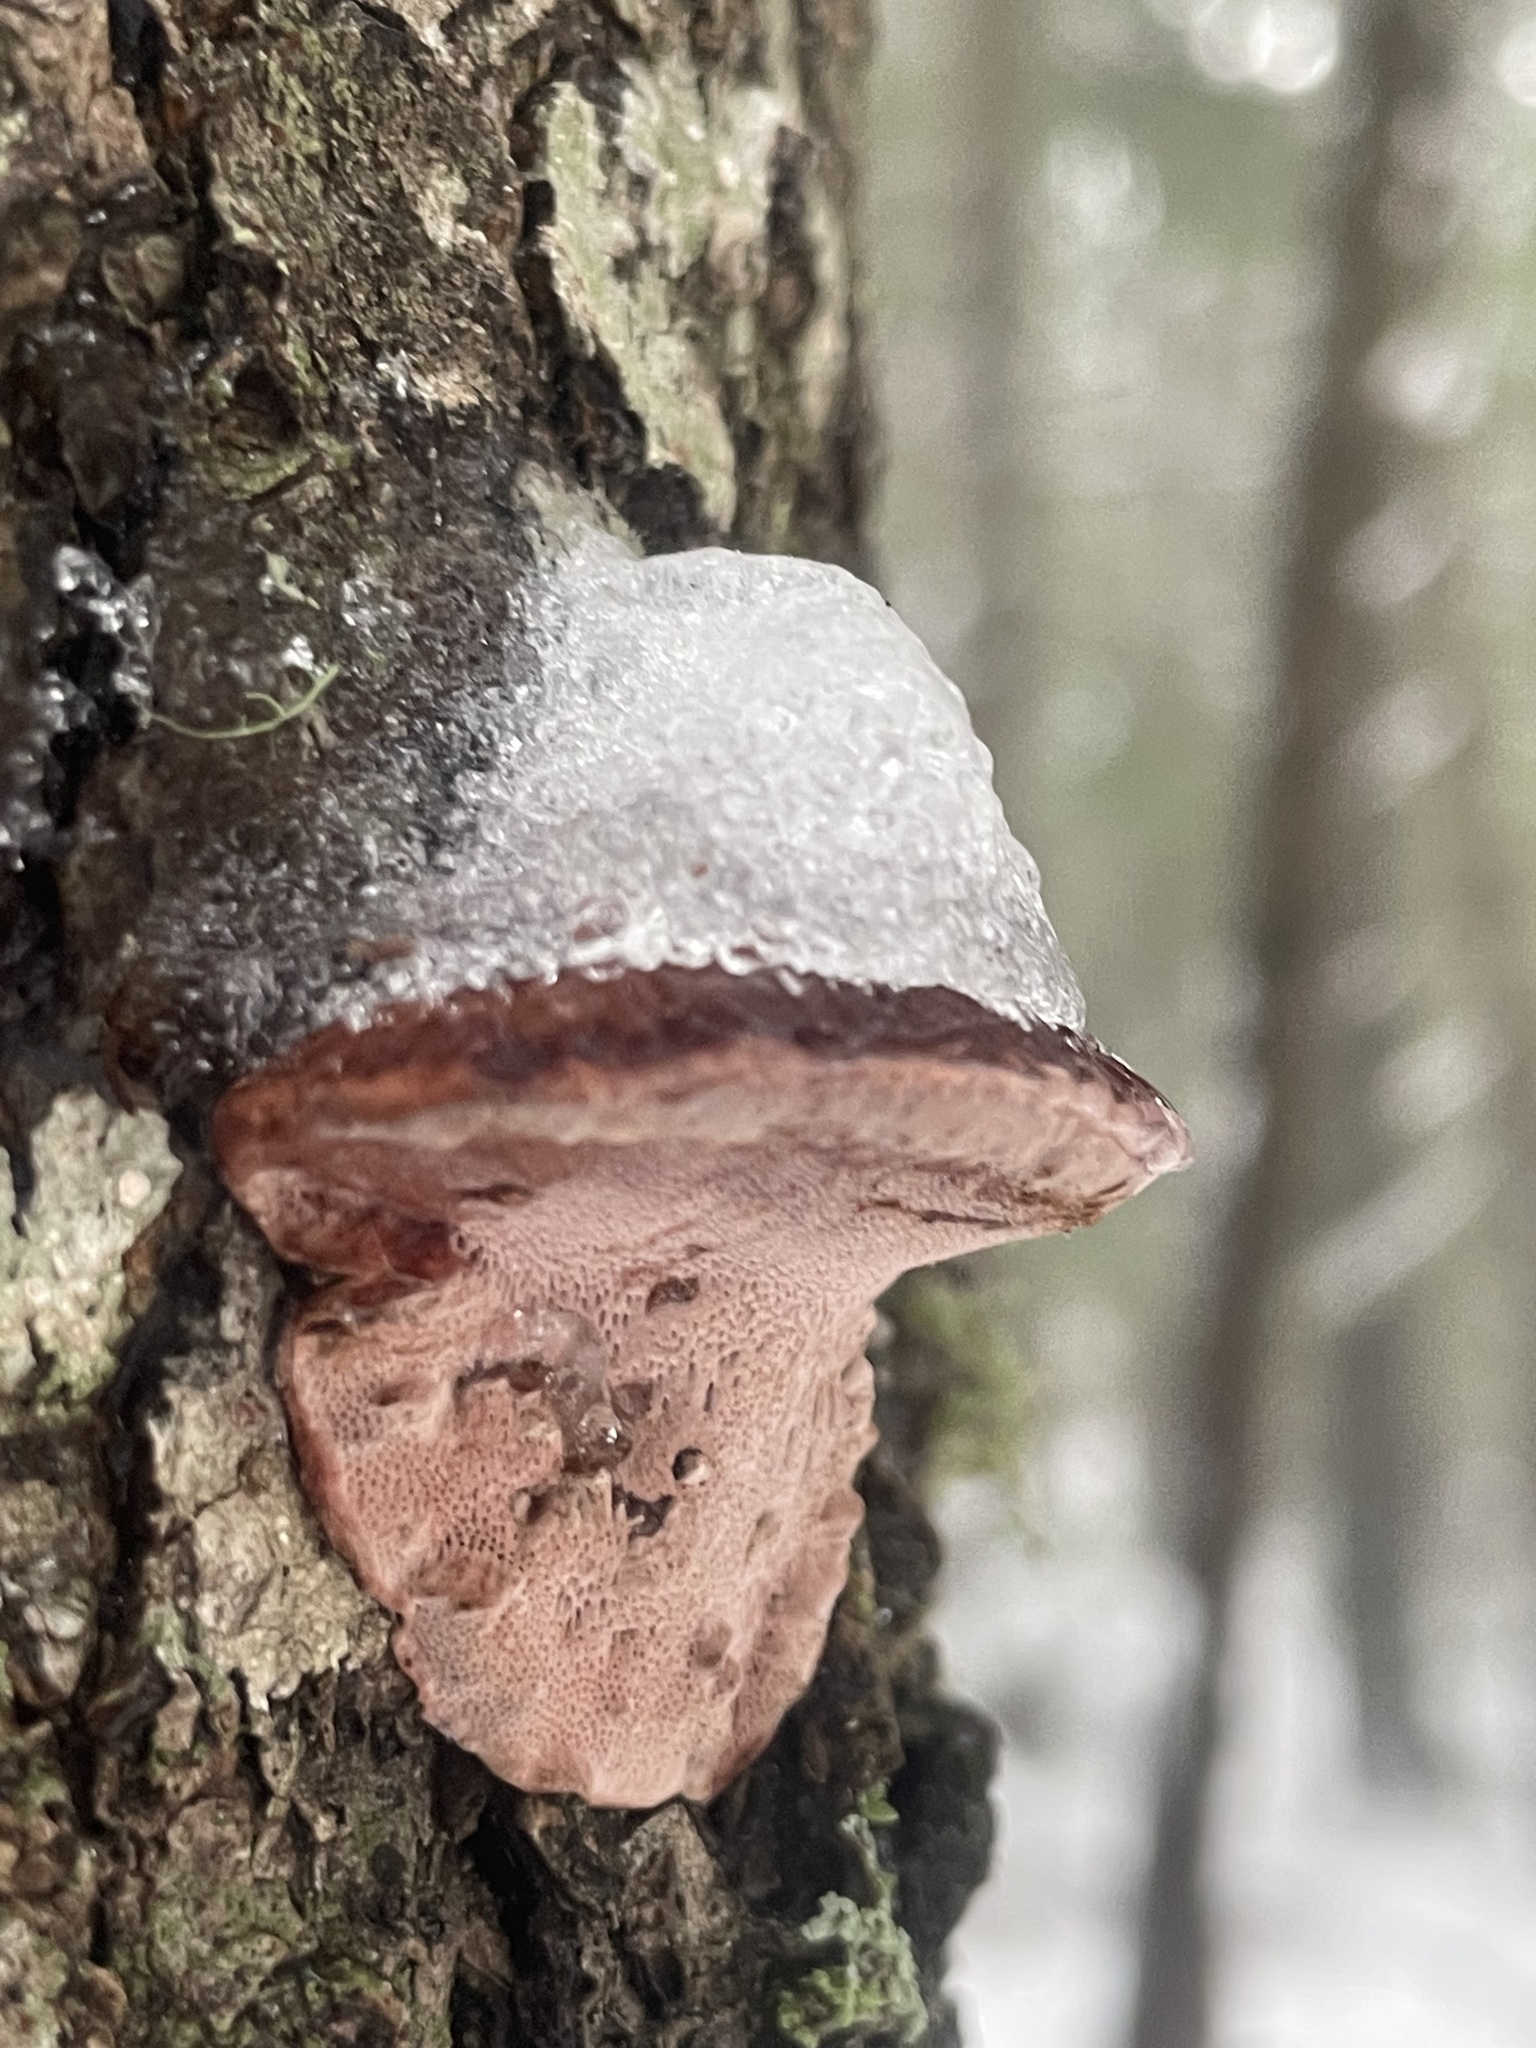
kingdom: Fungi
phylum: Basidiomycota
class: Agaricomycetes
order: Polyporales
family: Fomitopsidaceae
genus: Rhodofomes
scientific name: Rhodofomes cajanderi
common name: Rosy conk
